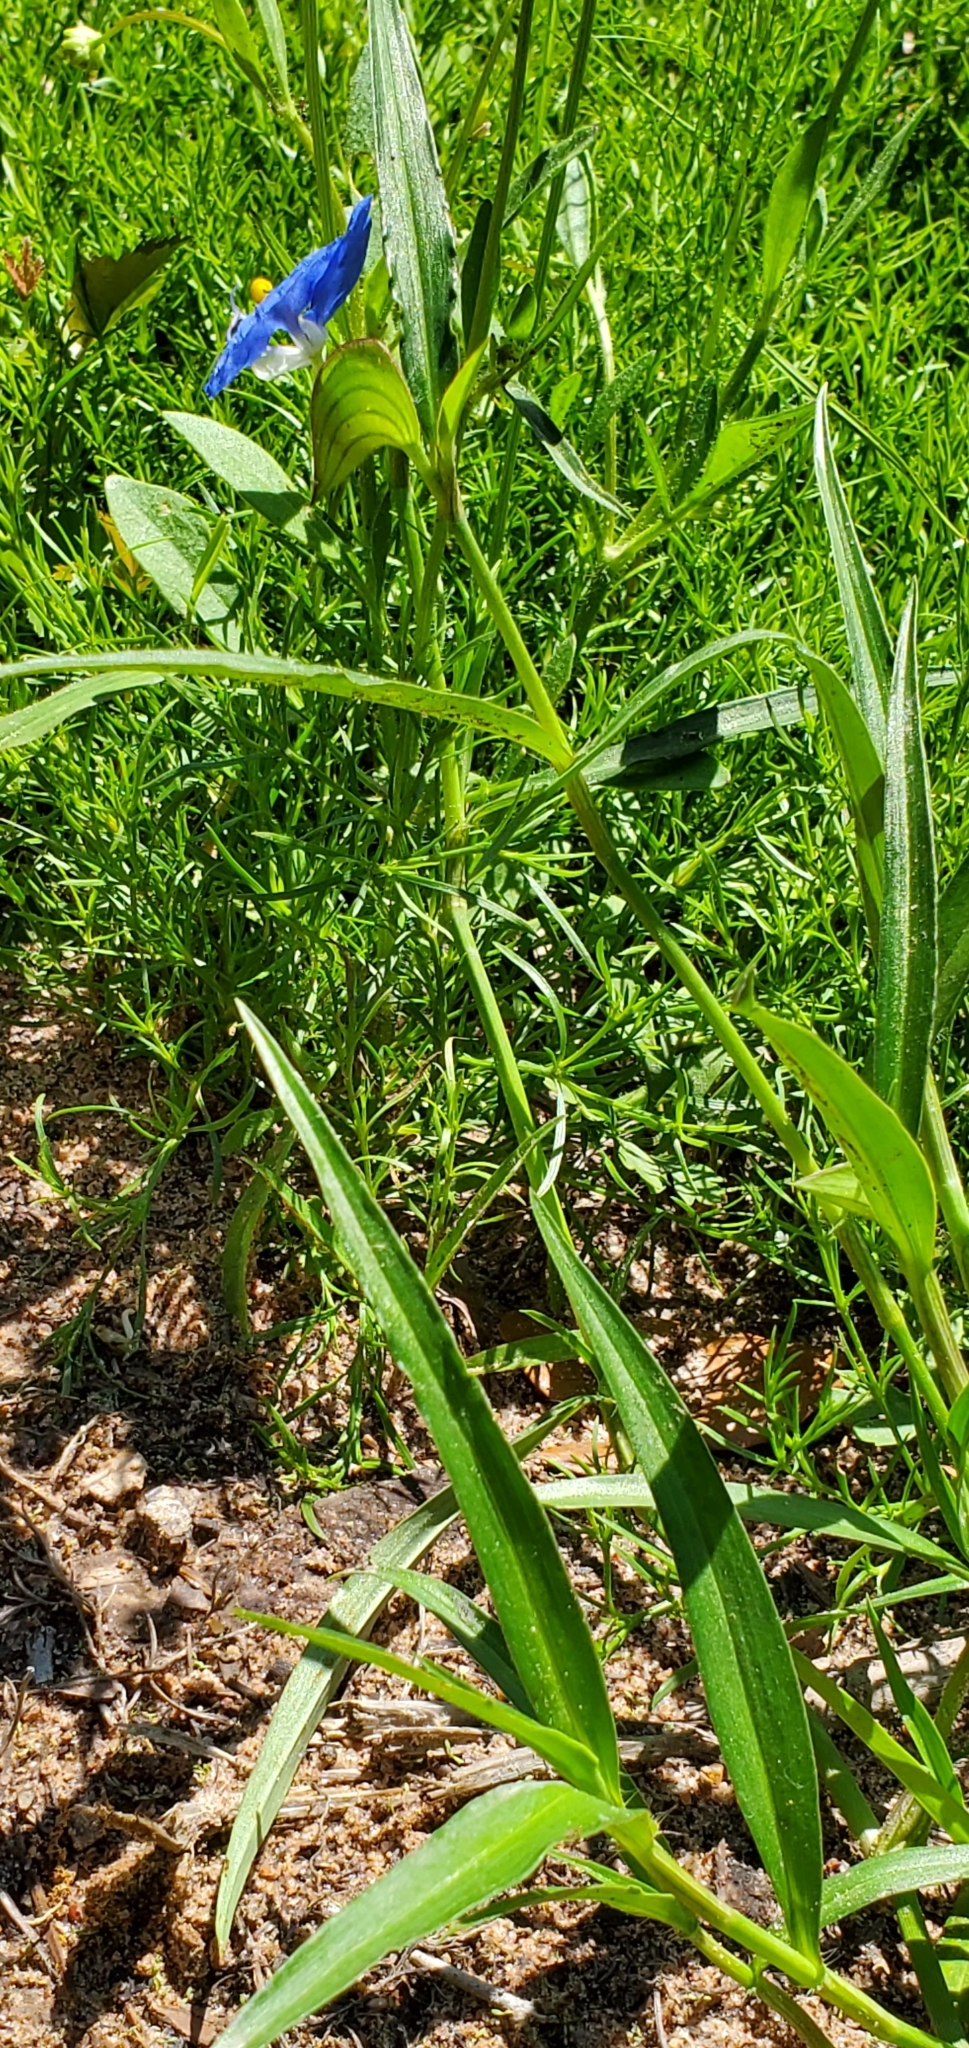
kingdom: Plantae
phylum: Tracheophyta
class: Liliopsida
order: Commelinales
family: Commelinaceae
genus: Commelina
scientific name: Commelina erecta
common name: Blousel blommetjie
